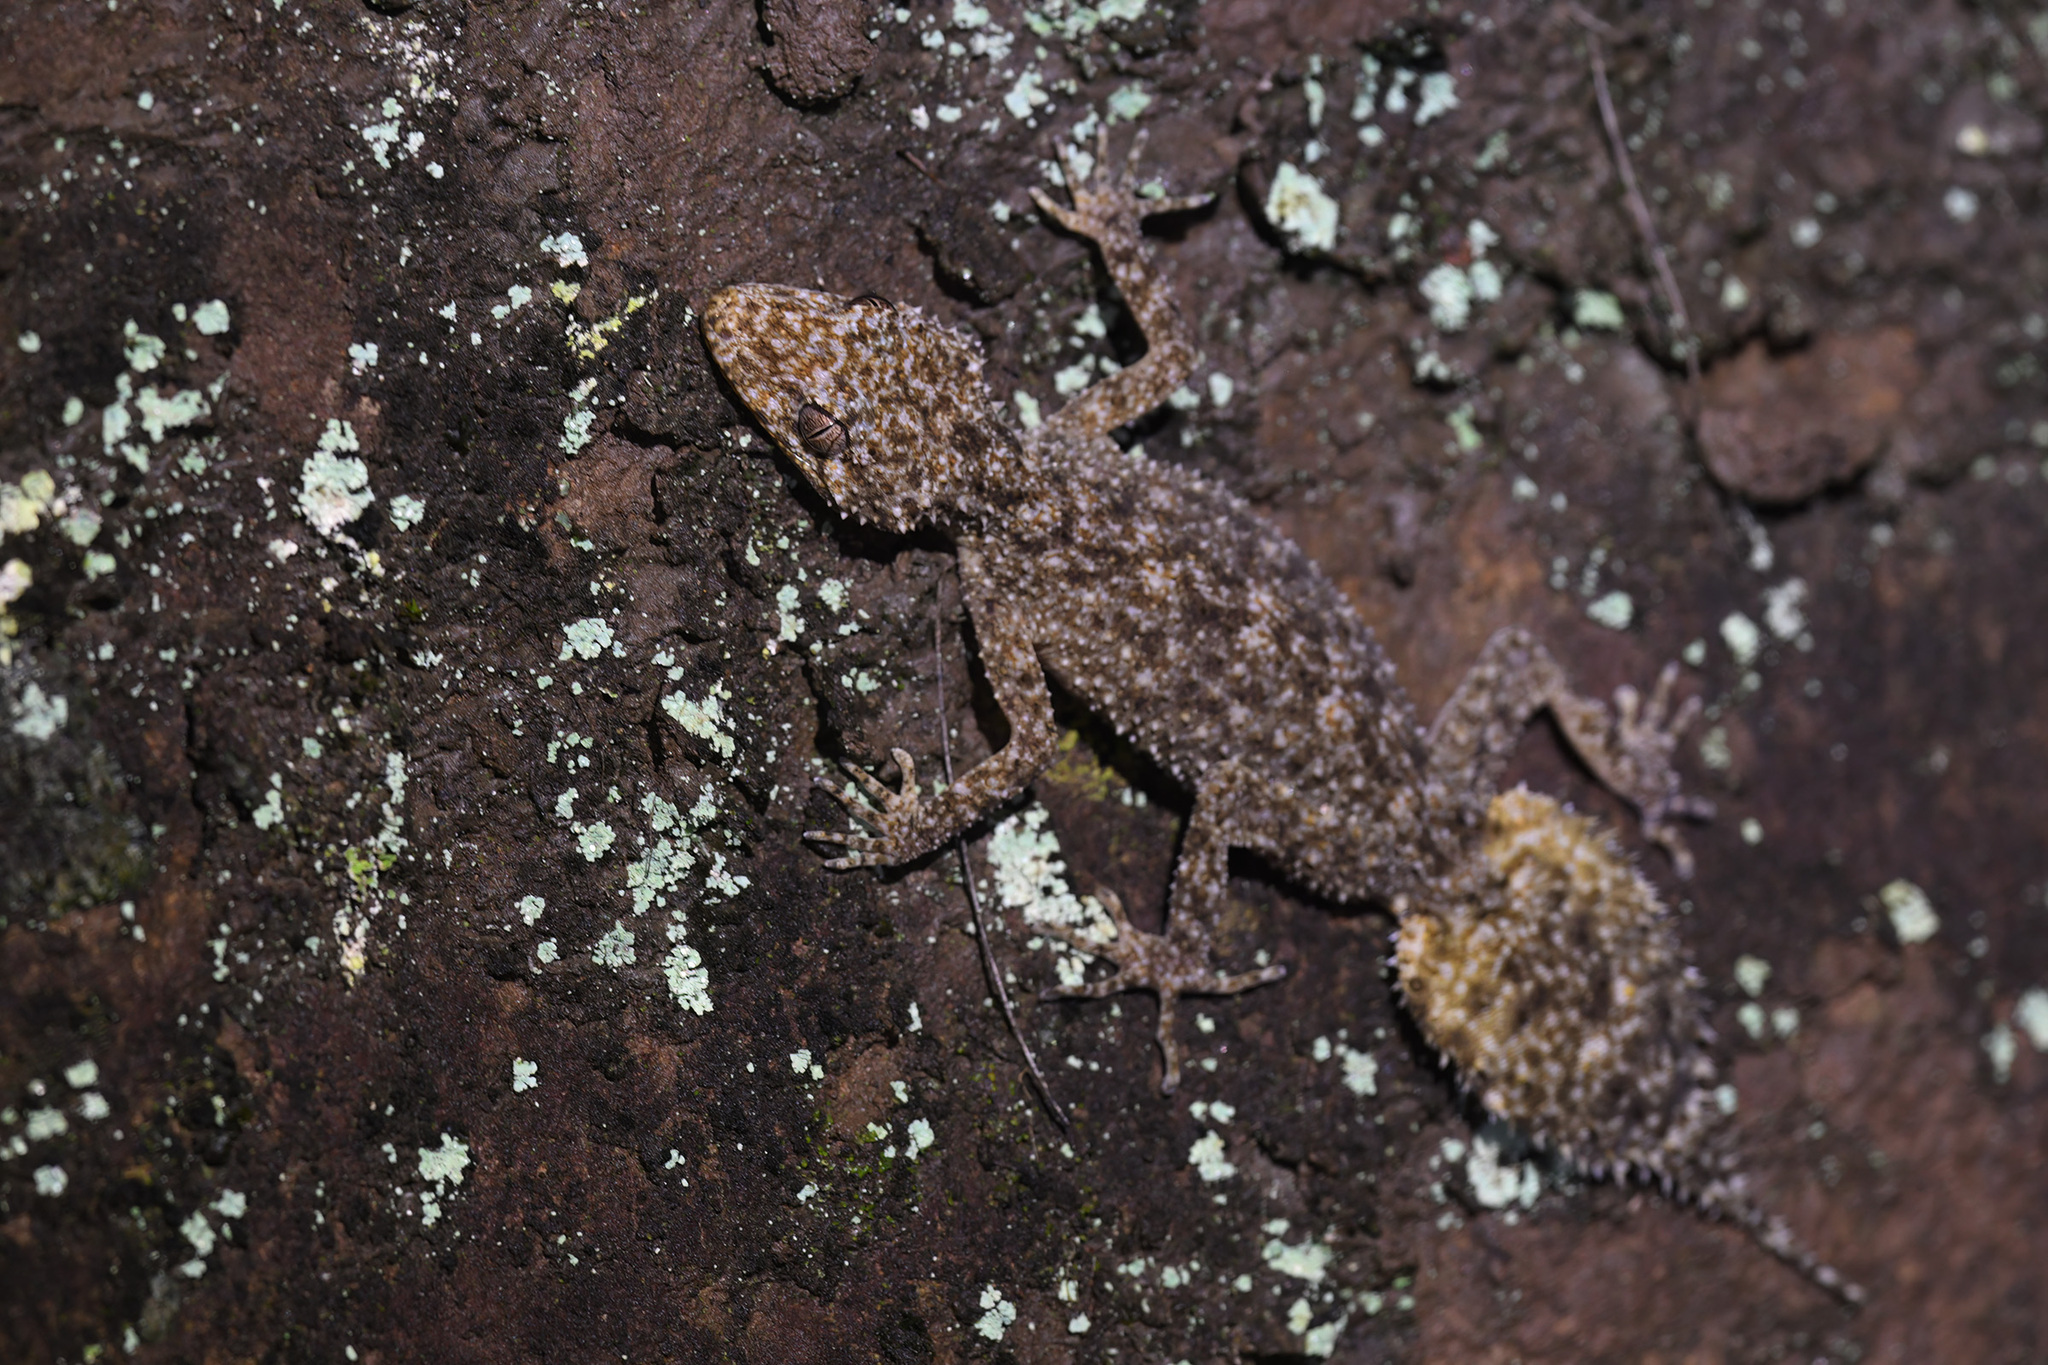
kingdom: Animalia
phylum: Chordata
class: Squamata
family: Carphodactylidae
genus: Phyllurus
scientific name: Phyllurus platurus
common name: Broad-tailed gecko
